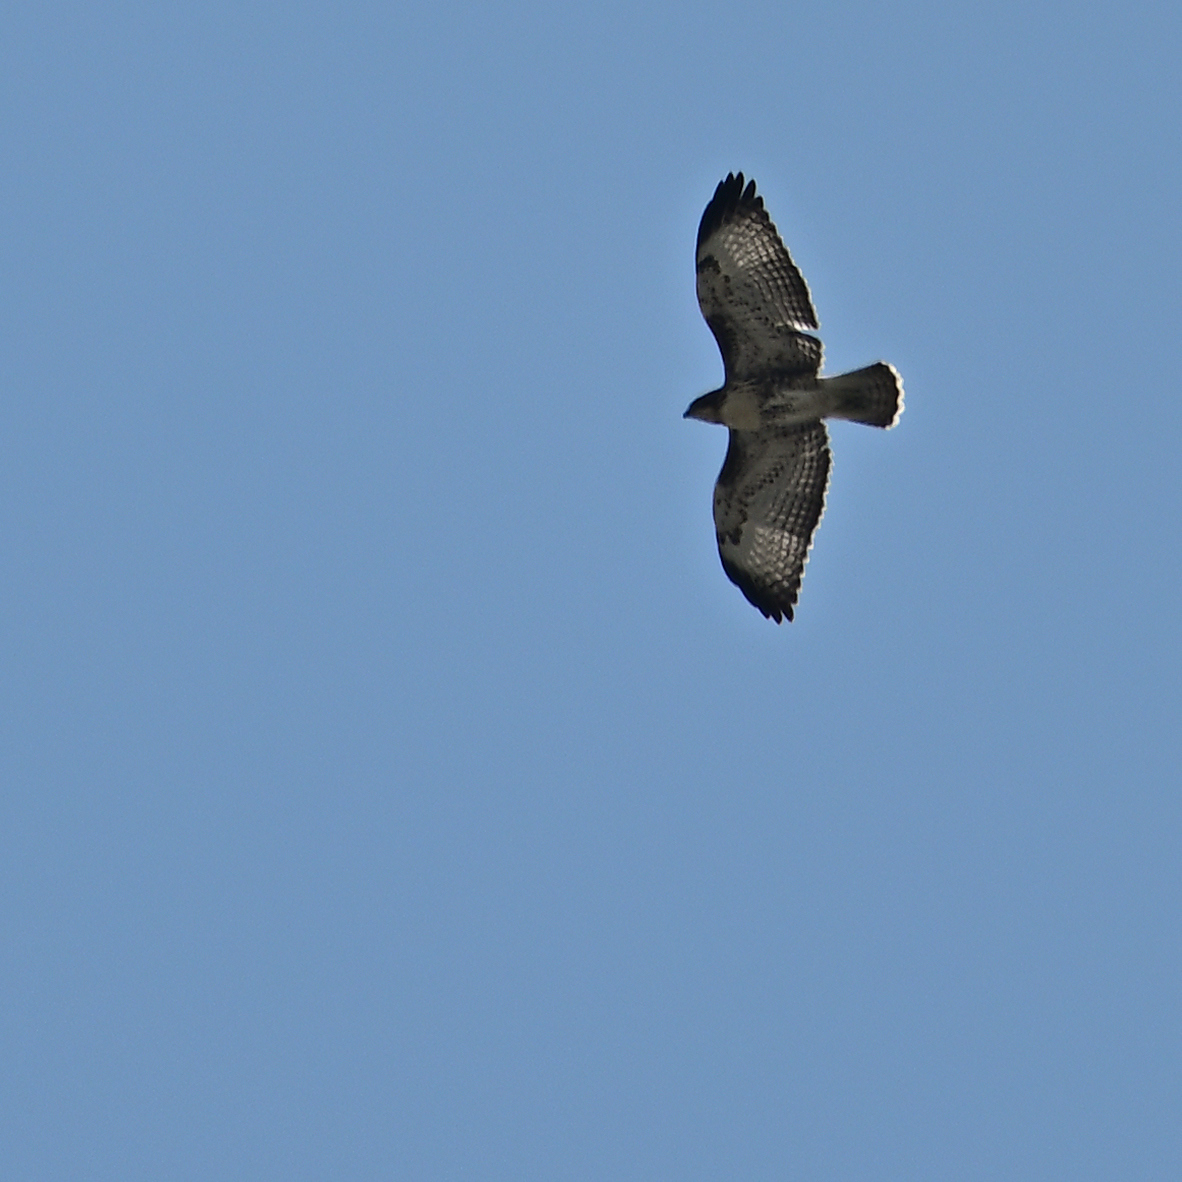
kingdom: Animalia
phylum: Chordata
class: Aves
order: Accipitriformes
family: Accipitridae
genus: Buteo
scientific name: Buteo jamaicensis
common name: Red-tailed hawk
